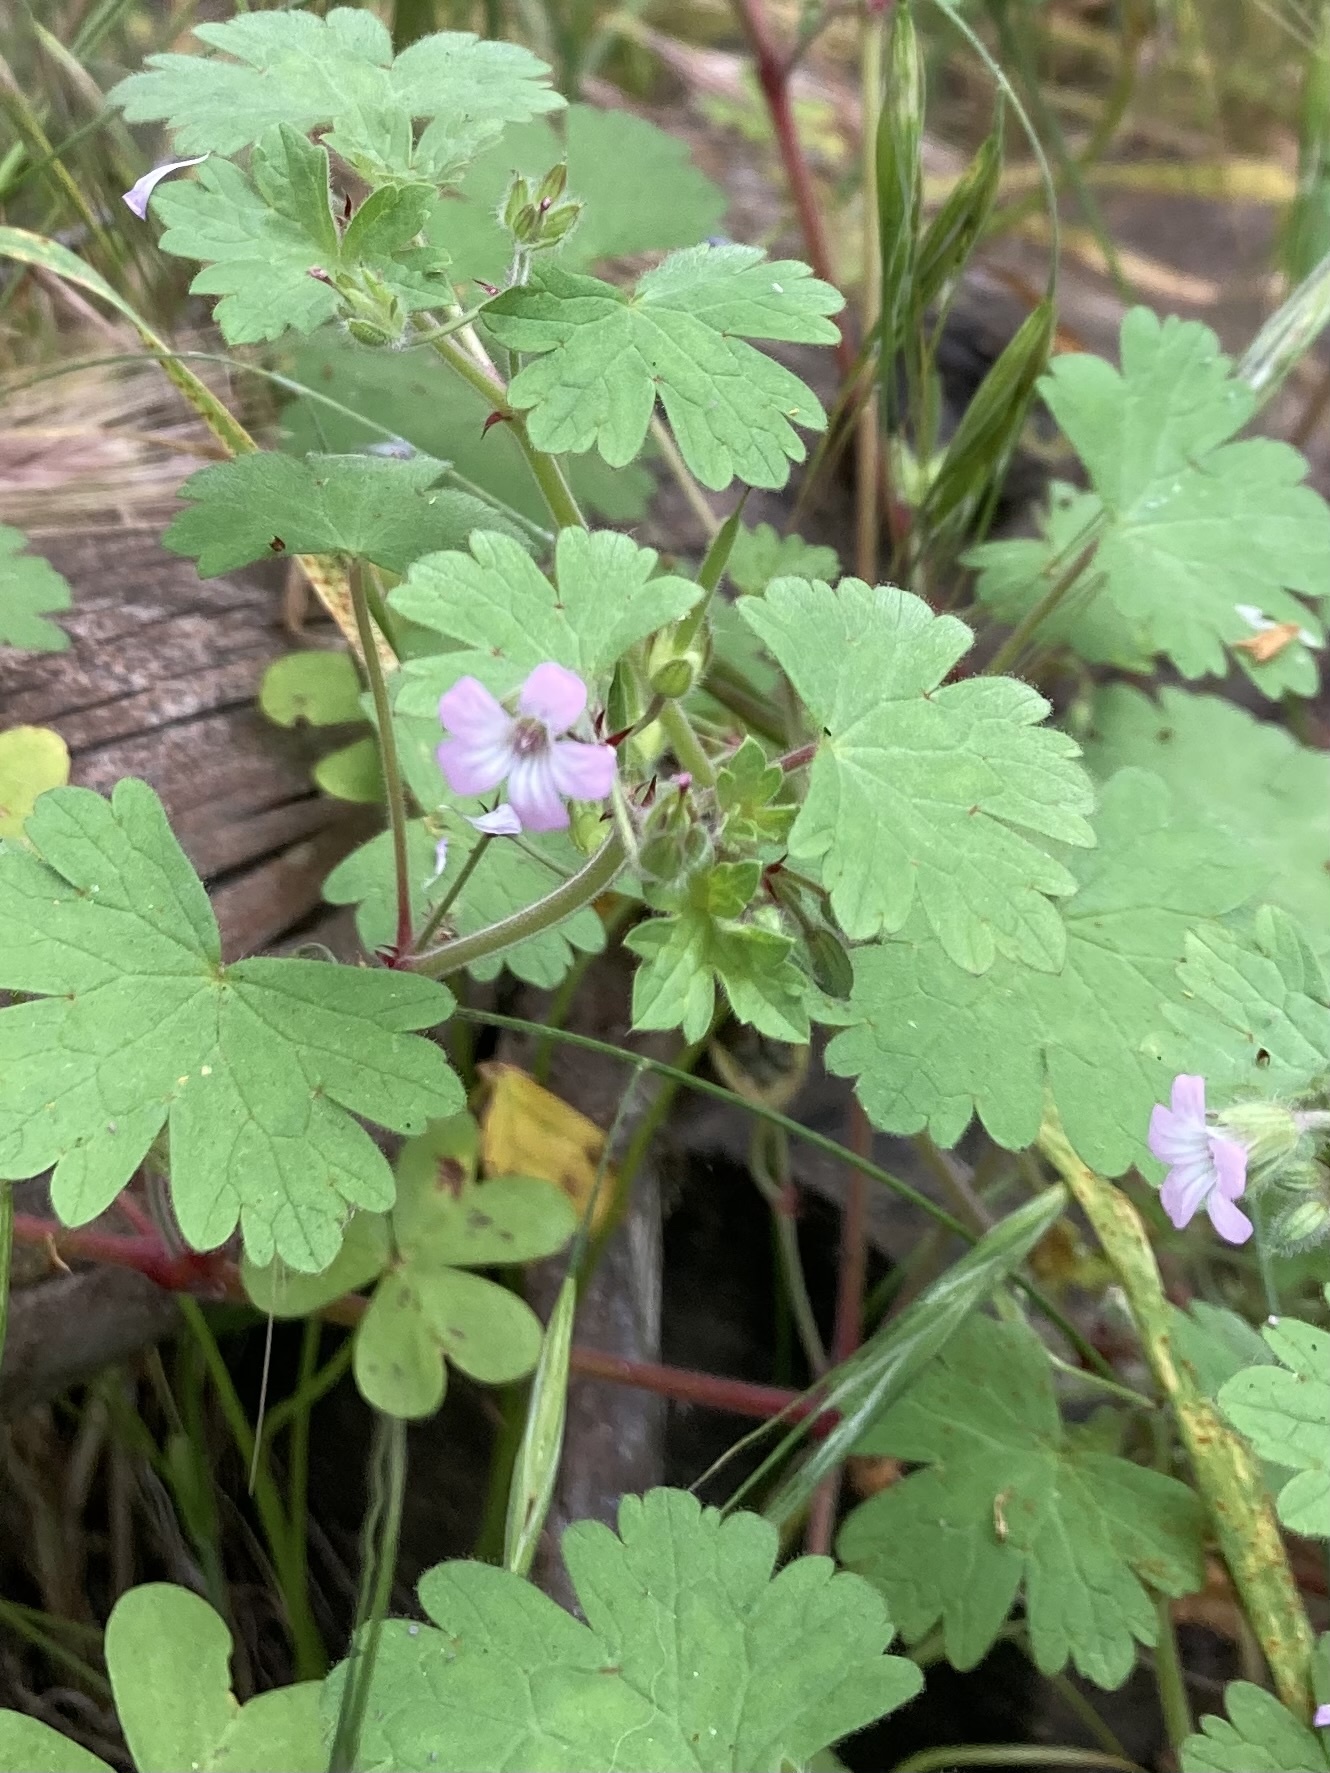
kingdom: Plantae
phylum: Tracheophyta
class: Magnoliopsida
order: Geraniales
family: Geraniaceae
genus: Geranium
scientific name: Geranium rotundifolium
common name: Round-leaved crane's-bill
